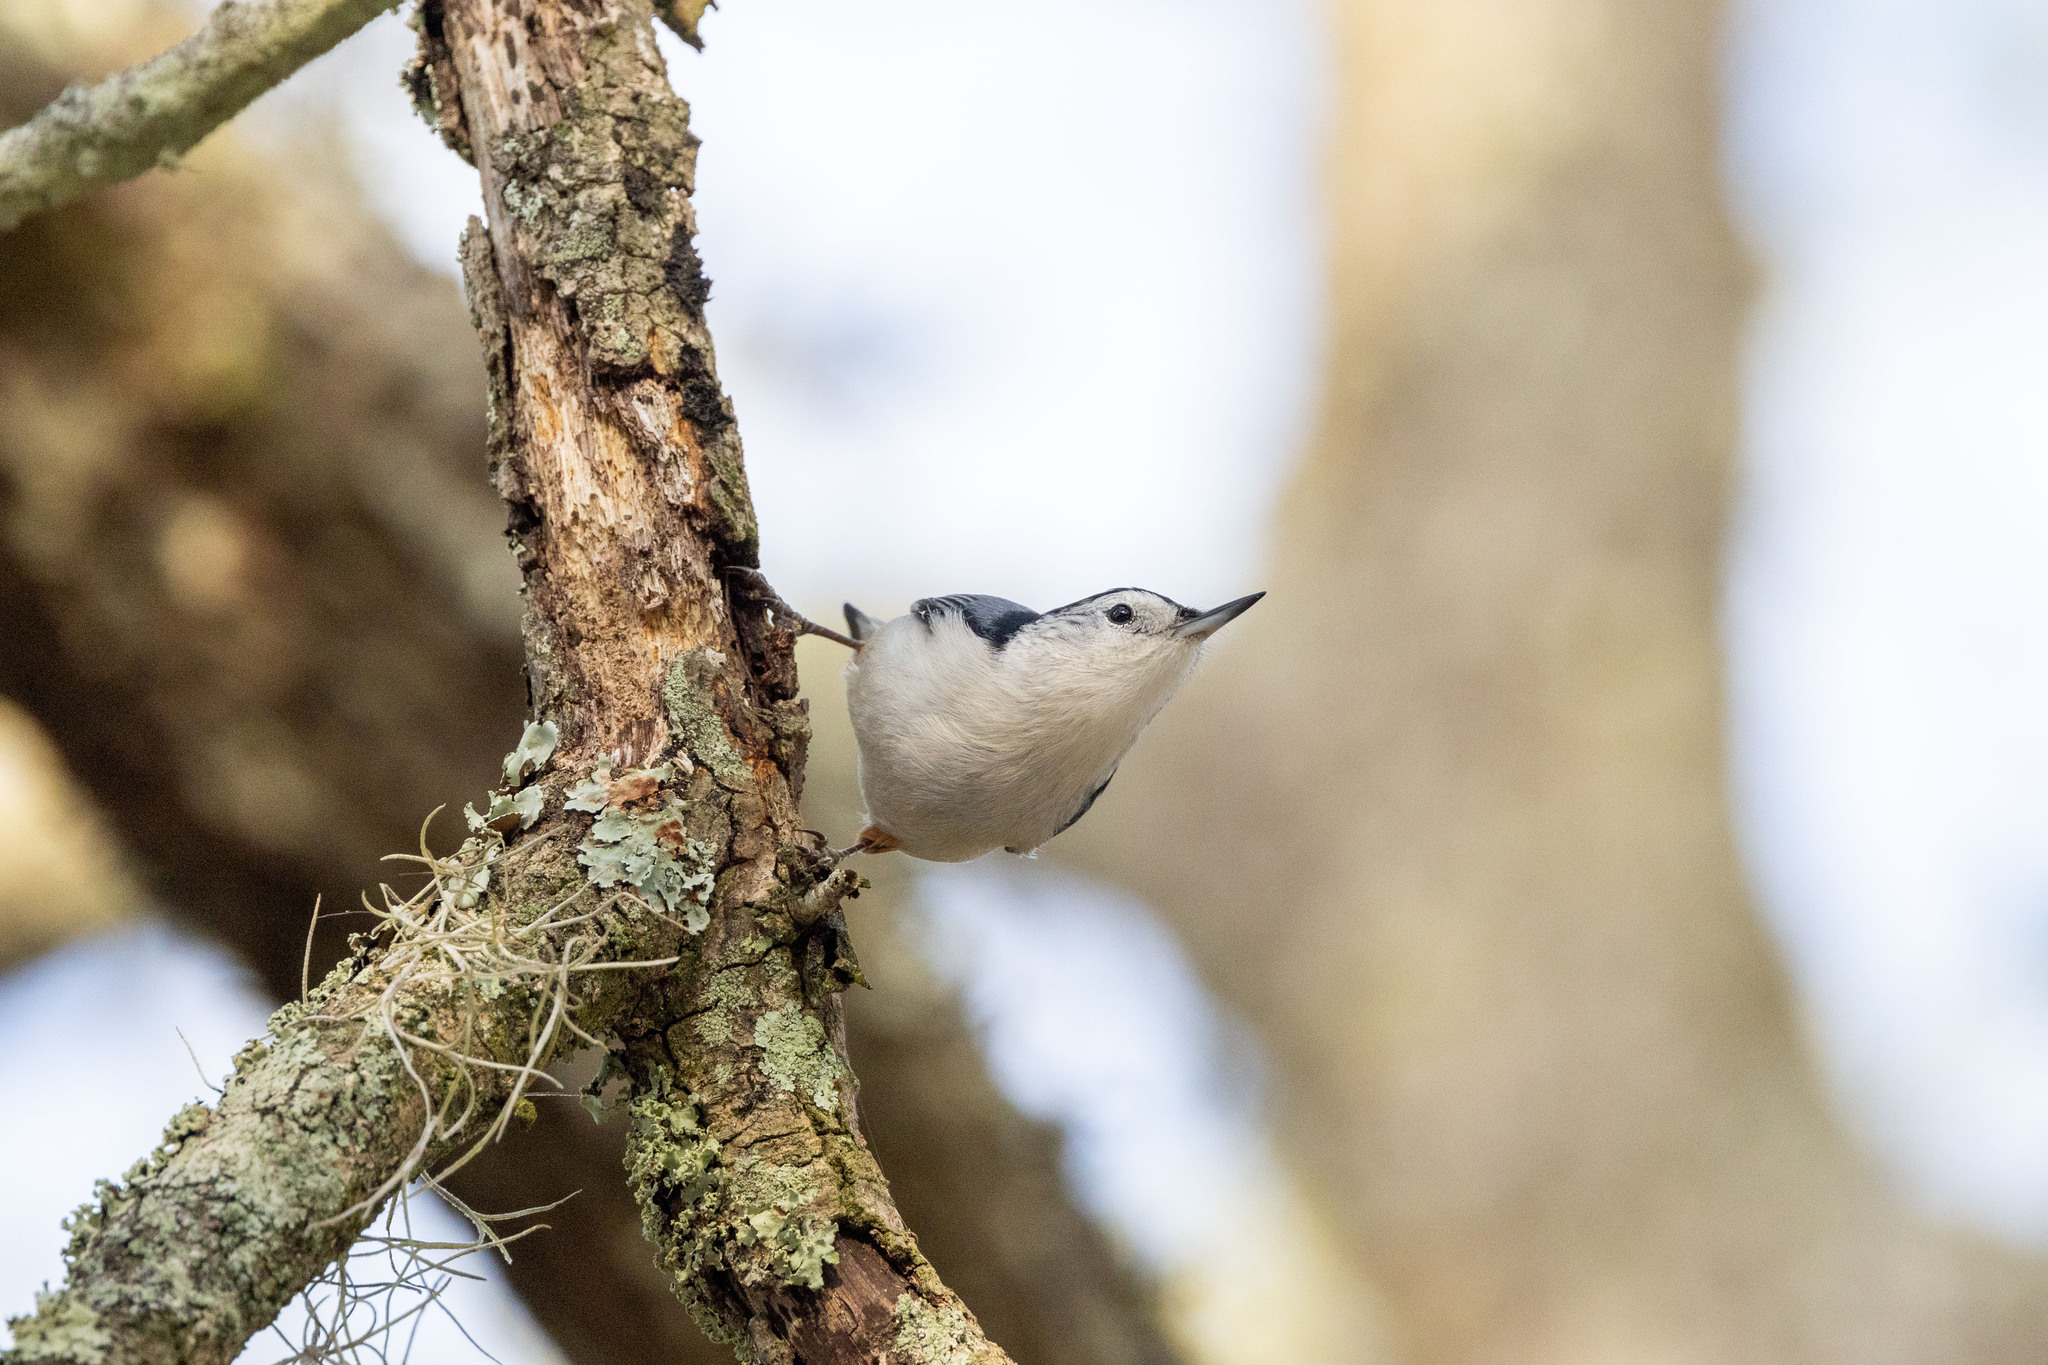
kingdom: Animalia
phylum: Chordata
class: Aves
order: Passeriformes
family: Sittidae
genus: Sitta
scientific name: Sitta carolinensis
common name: White-breasted nuthatch
